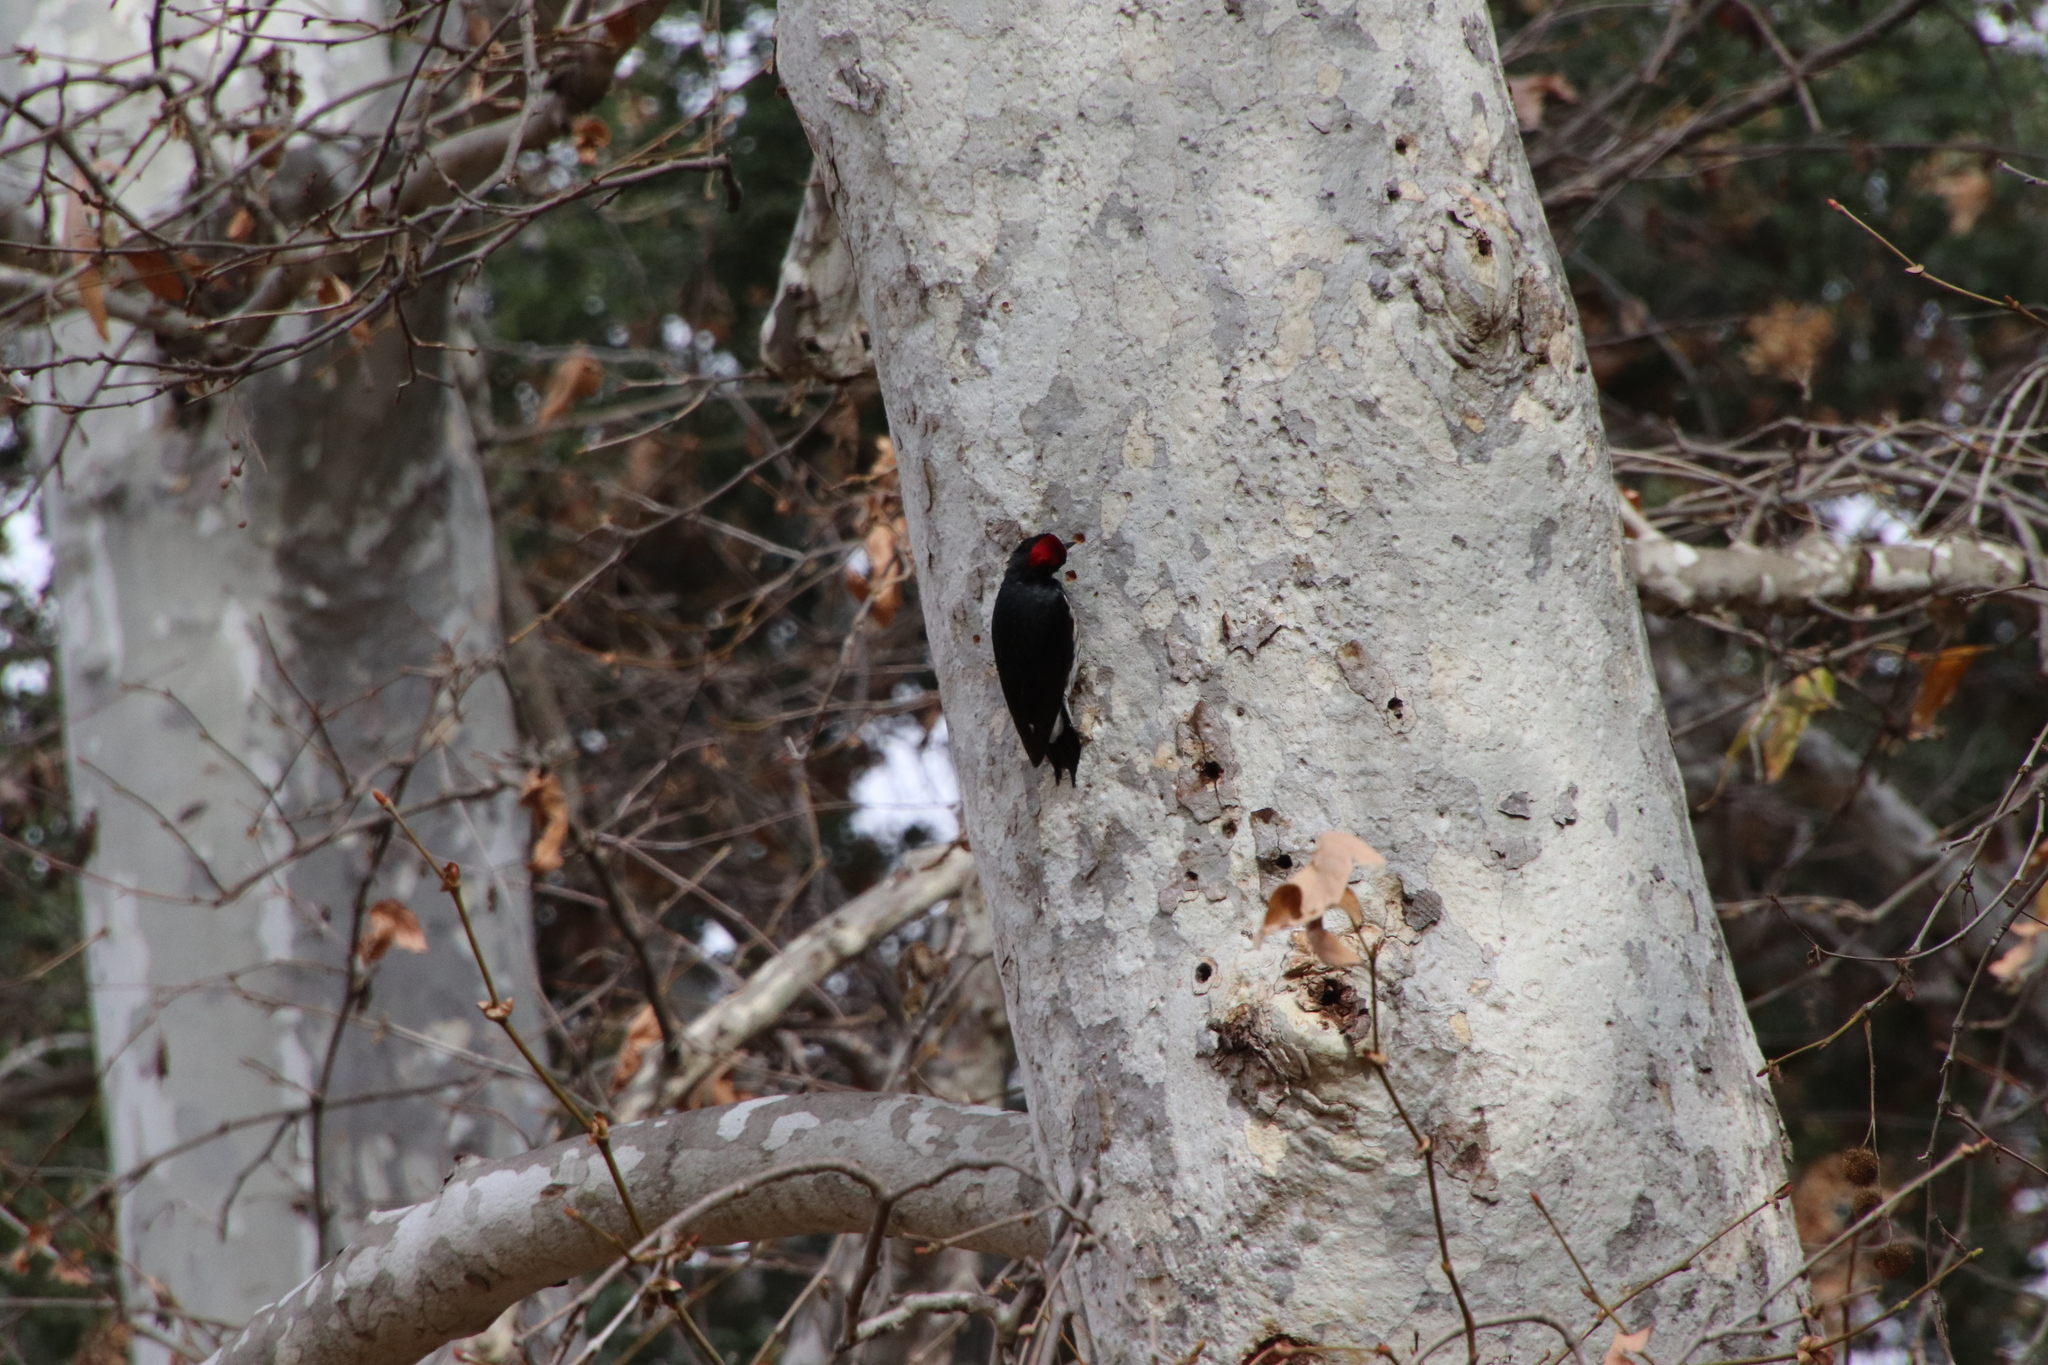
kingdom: Animalia
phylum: Chordata
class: Aves
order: Piciformes
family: Picidae
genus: Melanerpes
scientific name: Melanerpes formicivorus
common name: Acorn woodpecker
